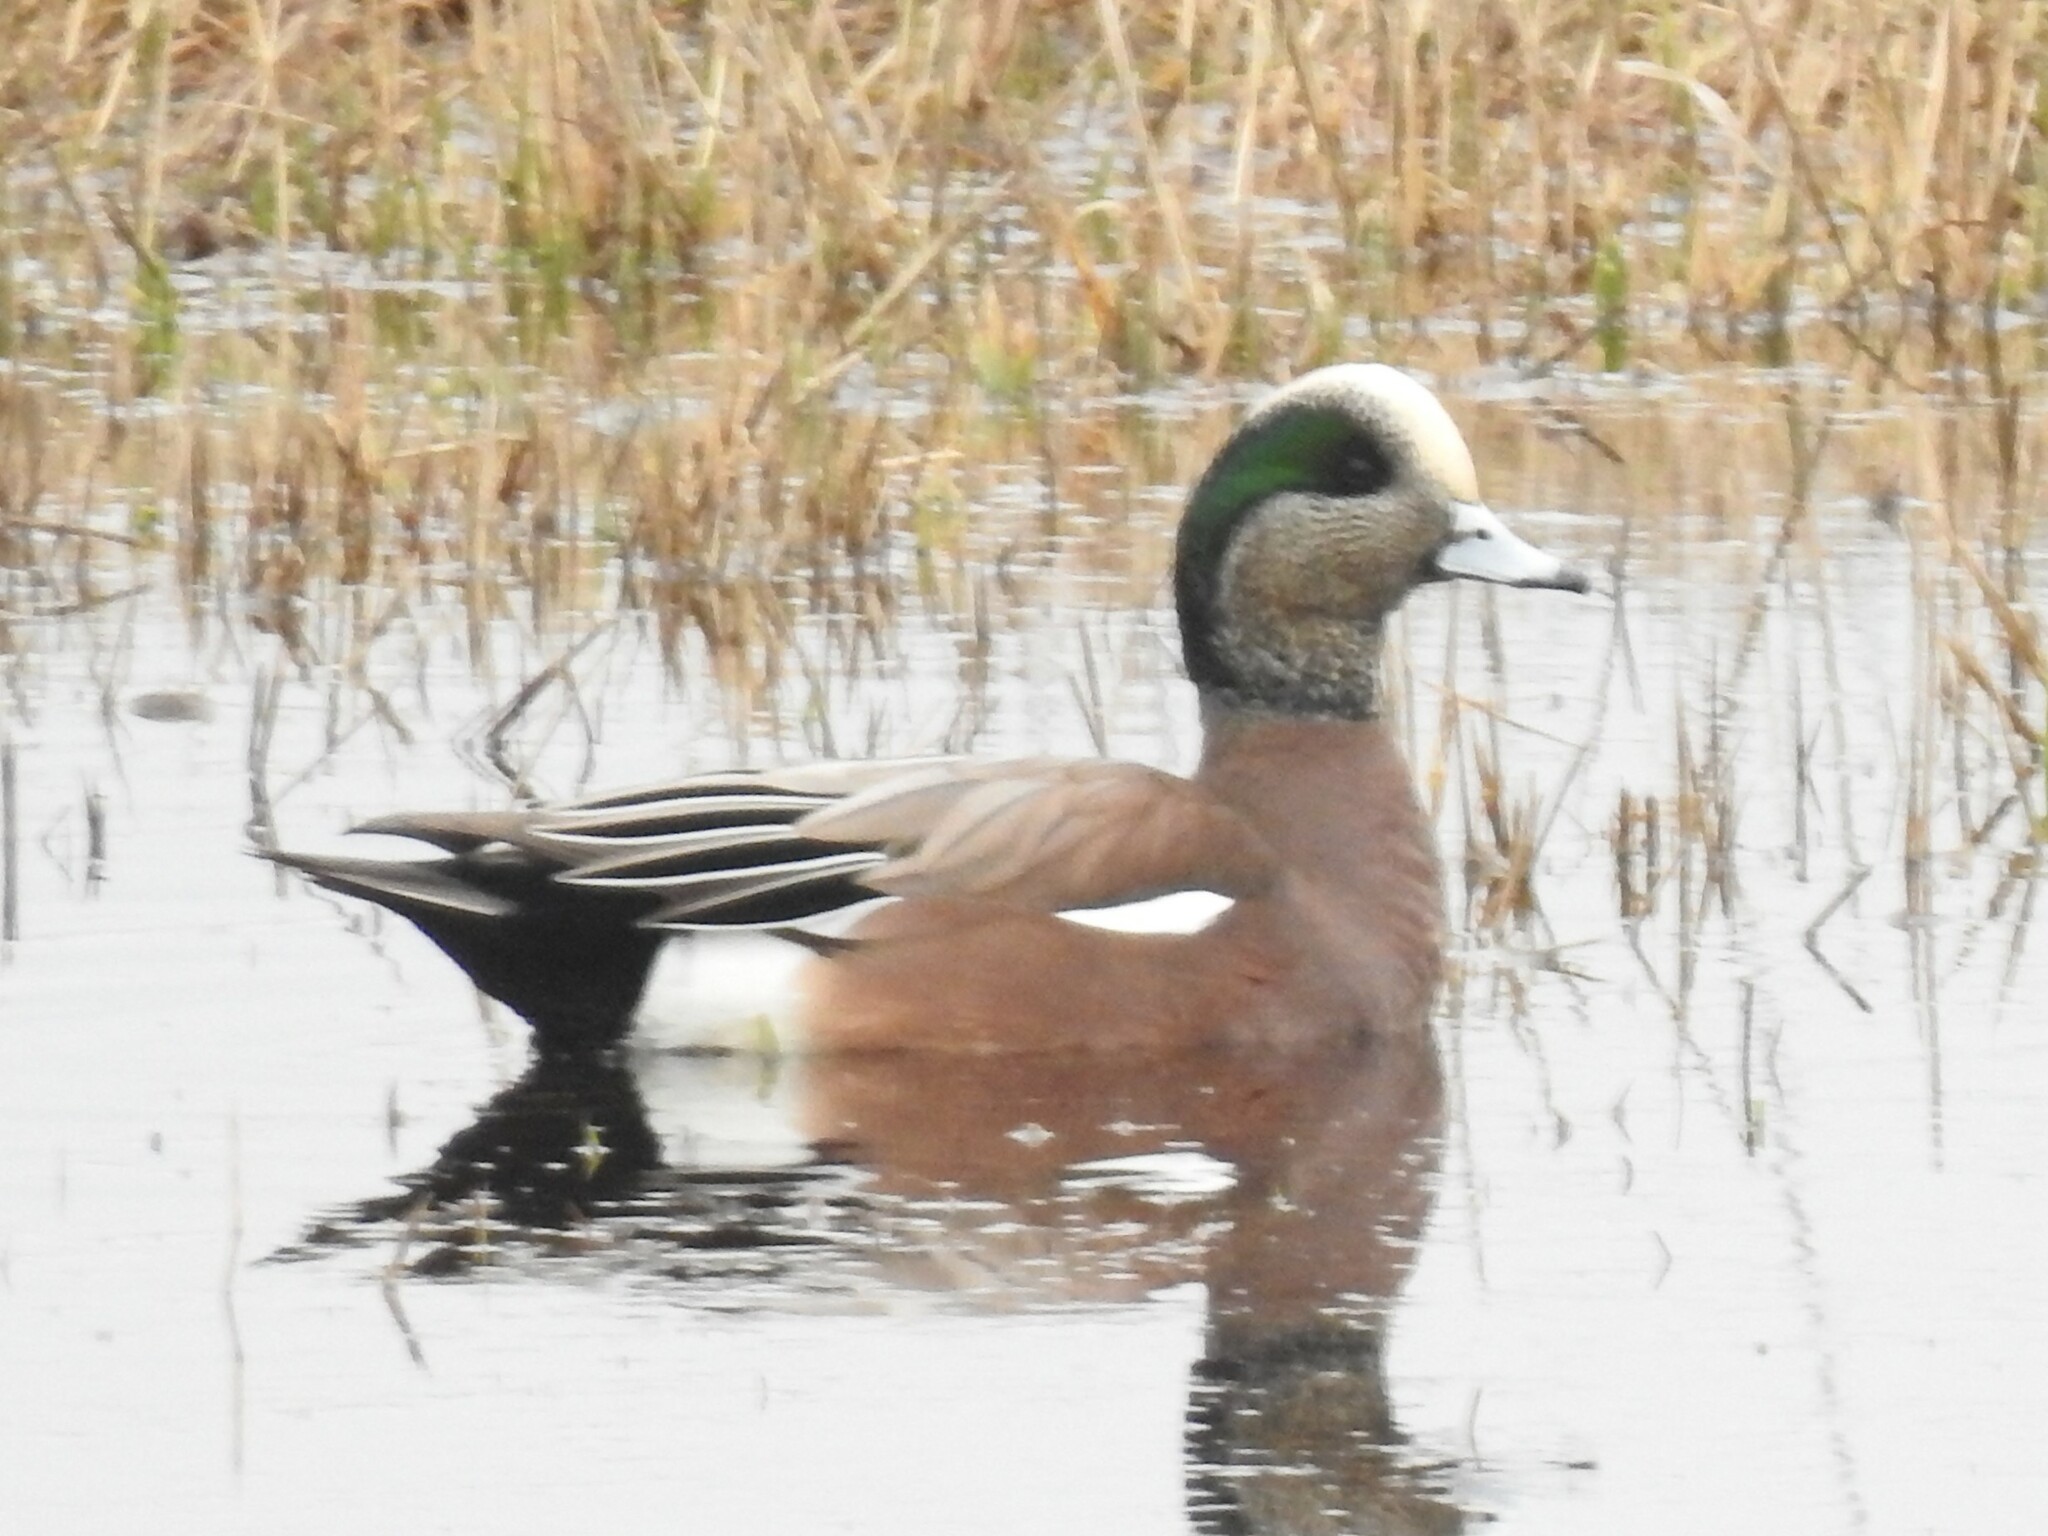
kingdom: Animalia
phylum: Chordata
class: Aves
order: Anseriformes
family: Anatidae
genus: Mareca
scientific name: Mareca americana
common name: American wigeon
